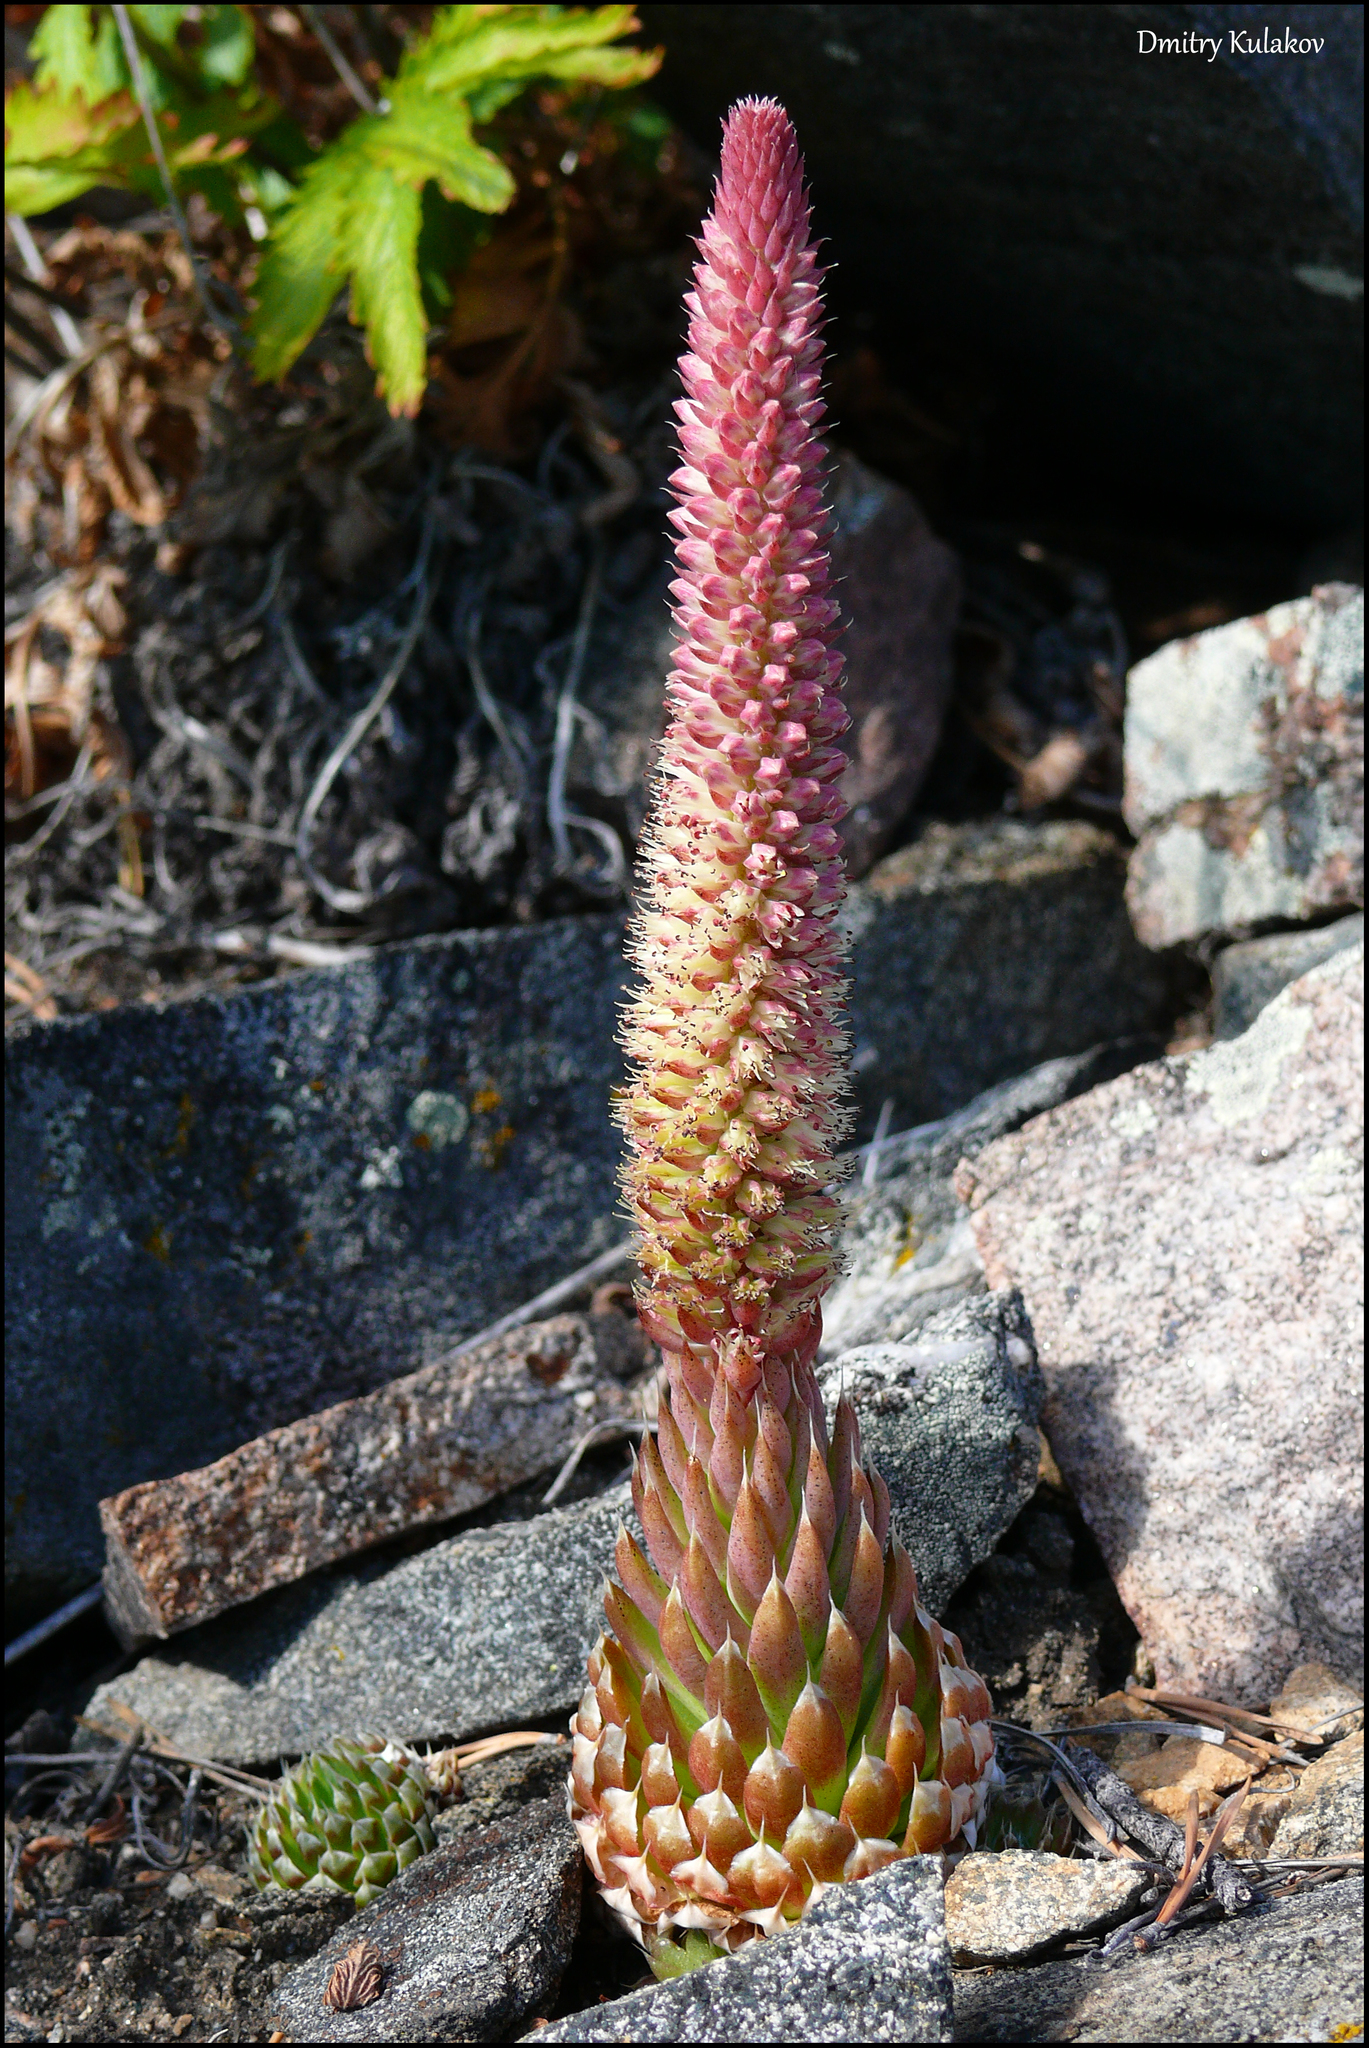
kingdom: Plantae
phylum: Tracheophyta
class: Magnoliopsida
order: Saxifragales
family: Crassulaceae
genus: Orostachys
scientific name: Orostachys spinosa
